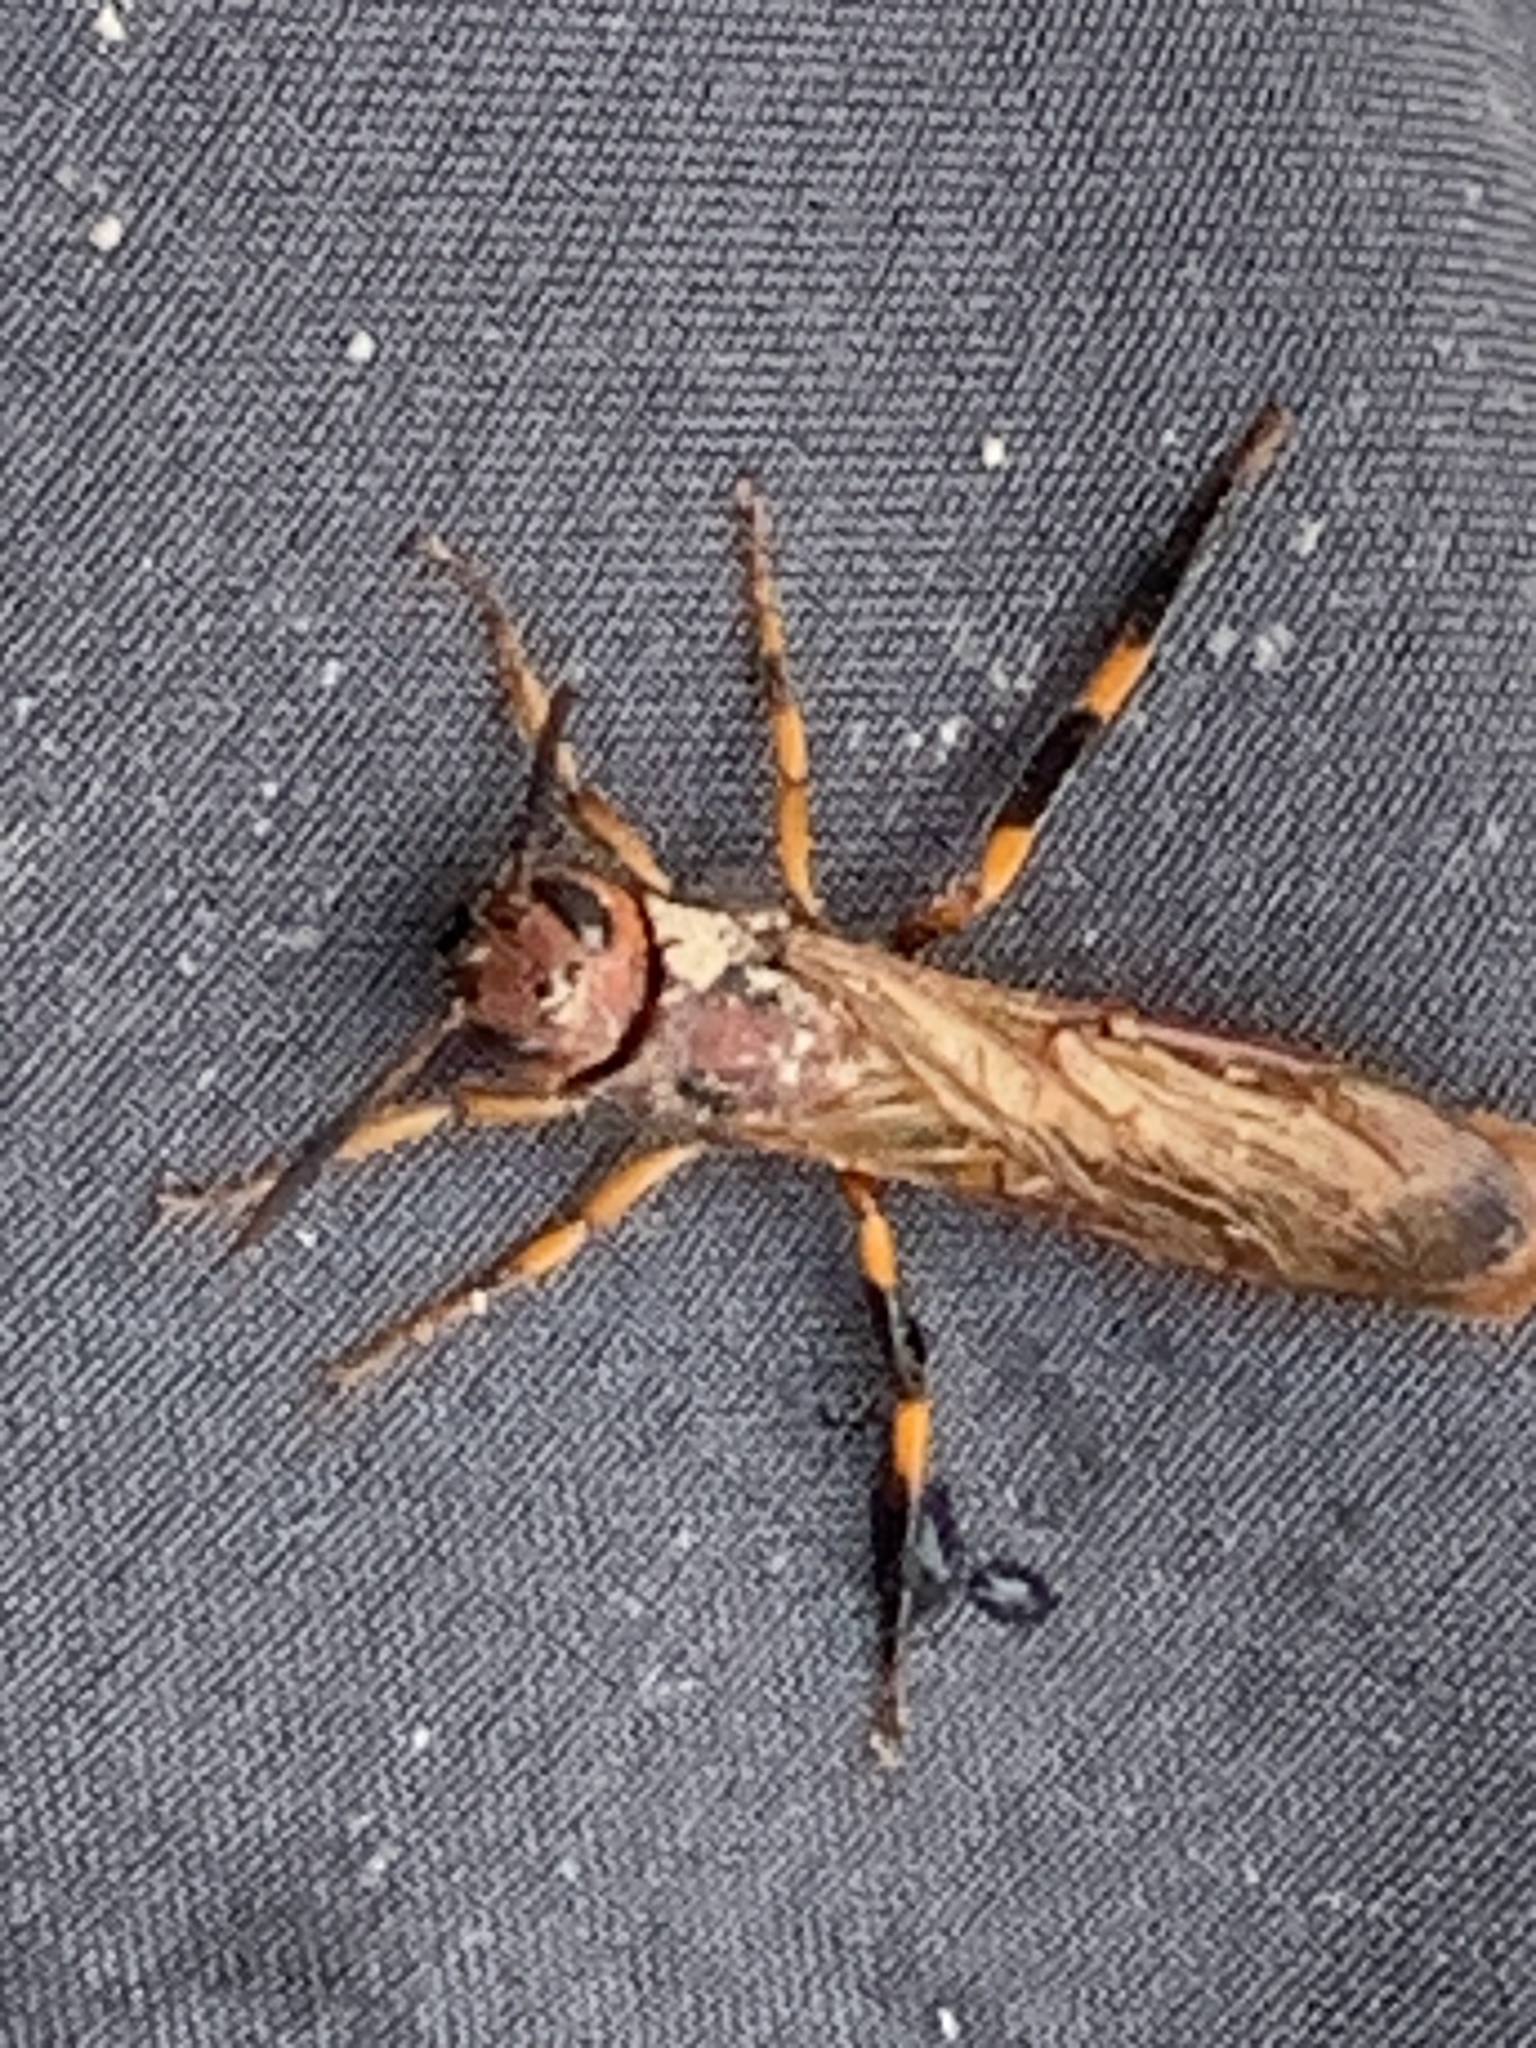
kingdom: Animalia
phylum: Arthropoda
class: Insecta
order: Hymenoptera
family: Siricidae
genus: Tremex
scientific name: Tremex columba
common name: Wasp
